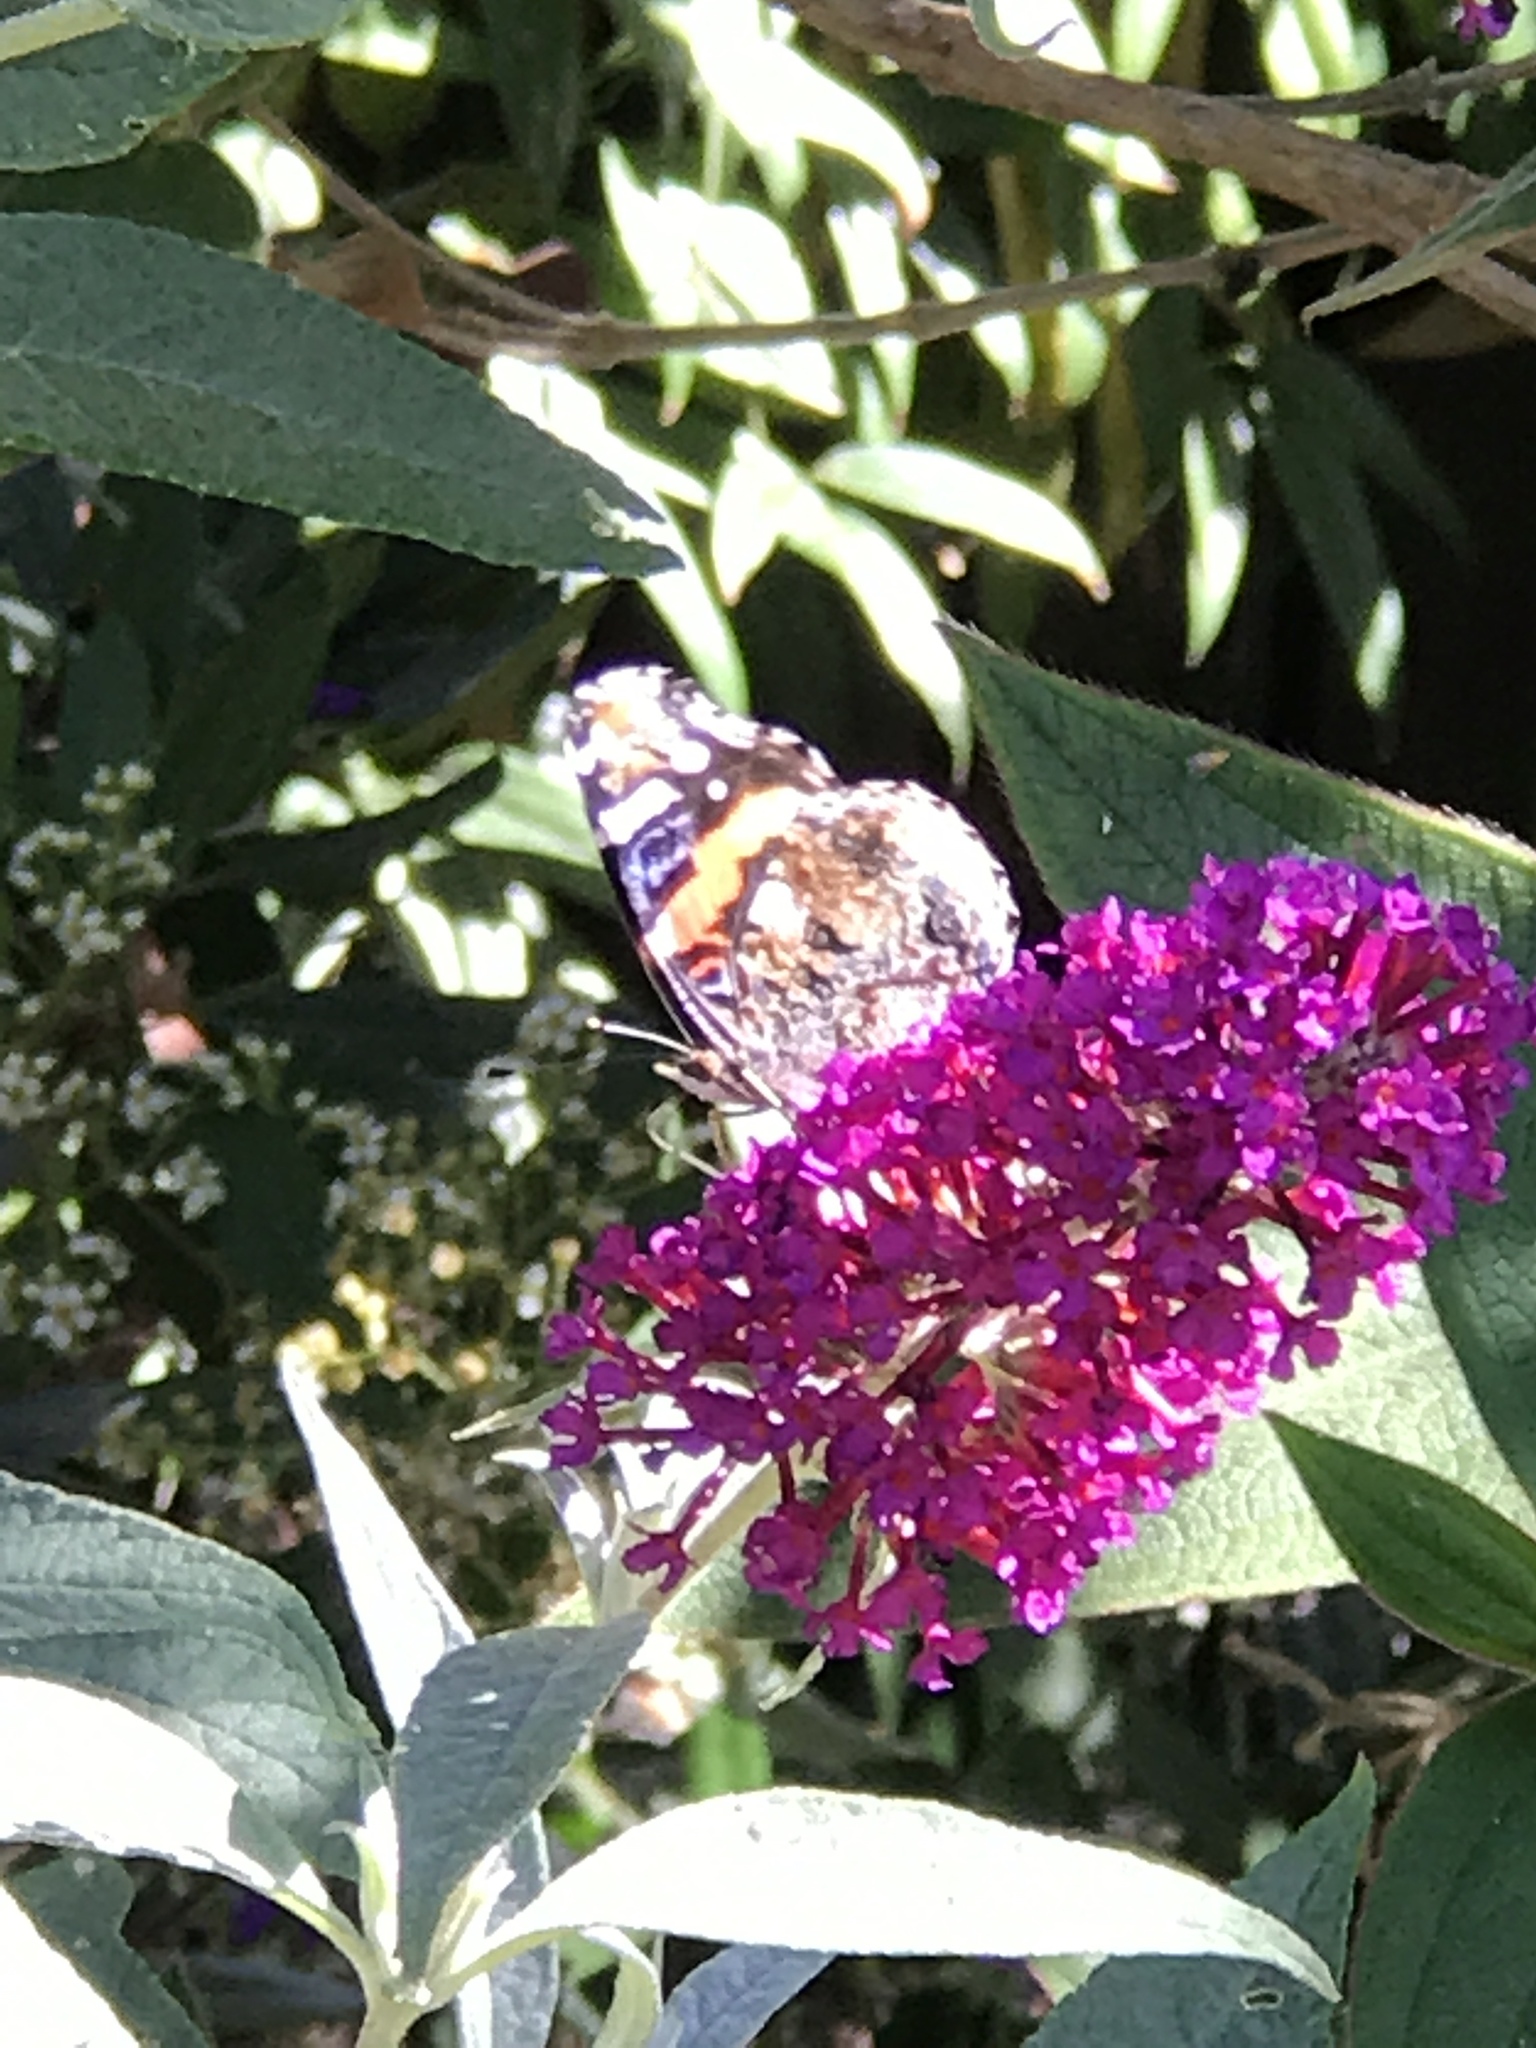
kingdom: Animalia
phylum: Arthropoda
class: Insecta
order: Lepidoptera
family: Nymphalidae
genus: Vanessa
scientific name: Vanessa atalanta
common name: Red admiral
